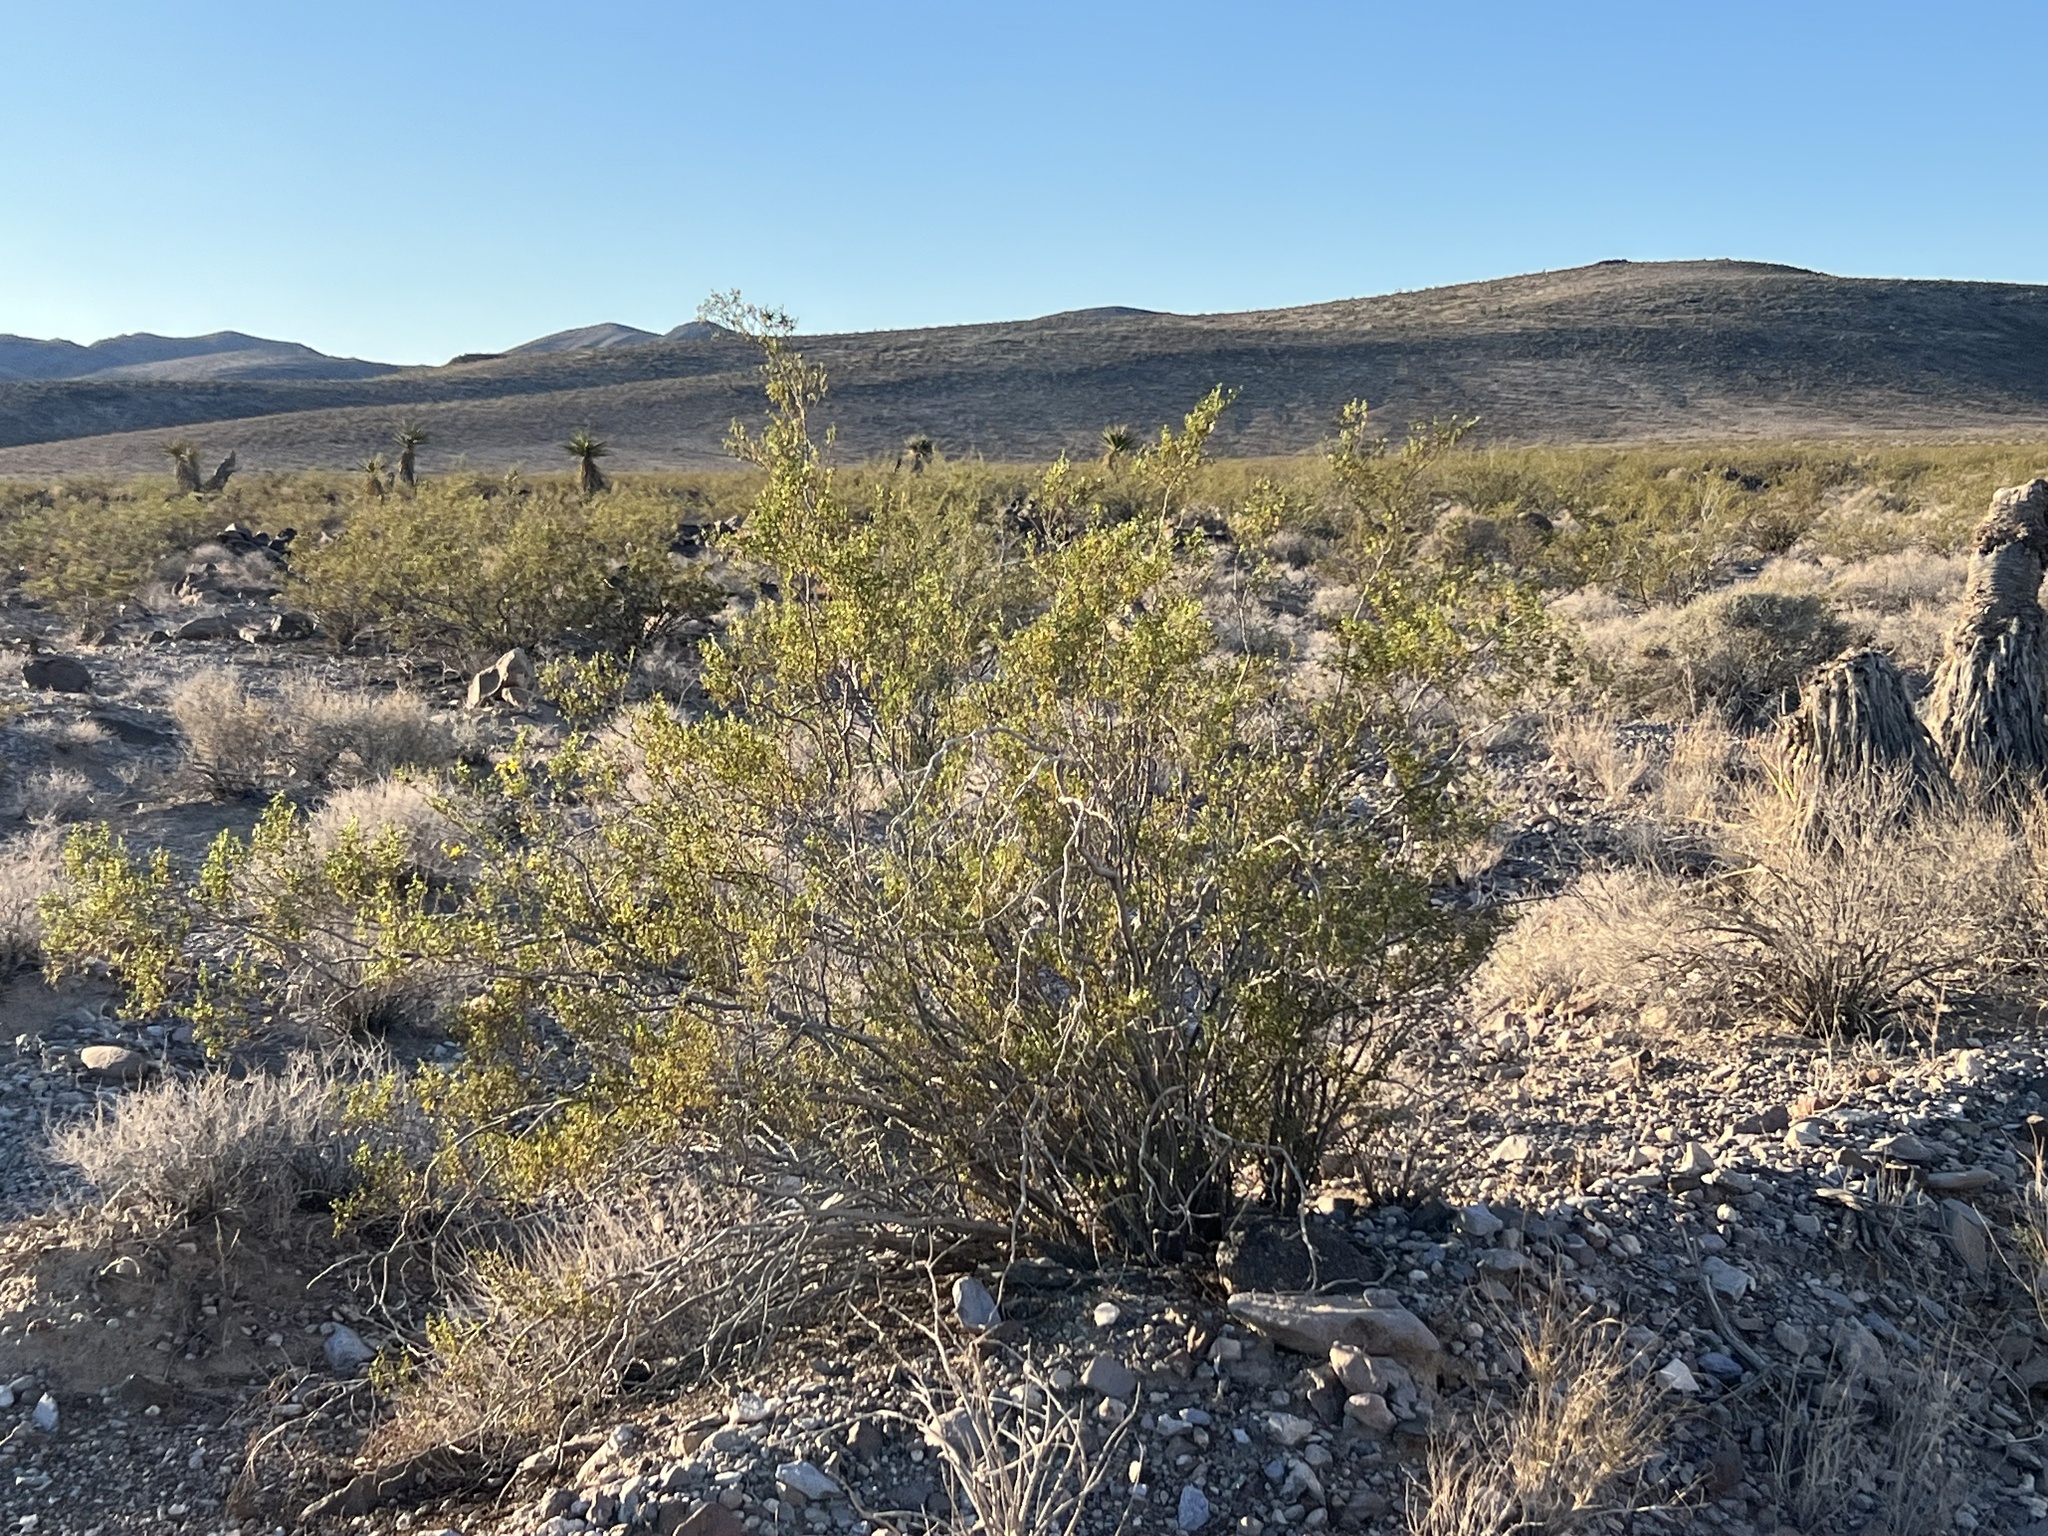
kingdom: Plantae
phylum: Tracheophyta
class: Magnoliopsida
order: Zygophyllales
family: Zygophyllaceae
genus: Larrea
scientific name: Larrea tridentata
